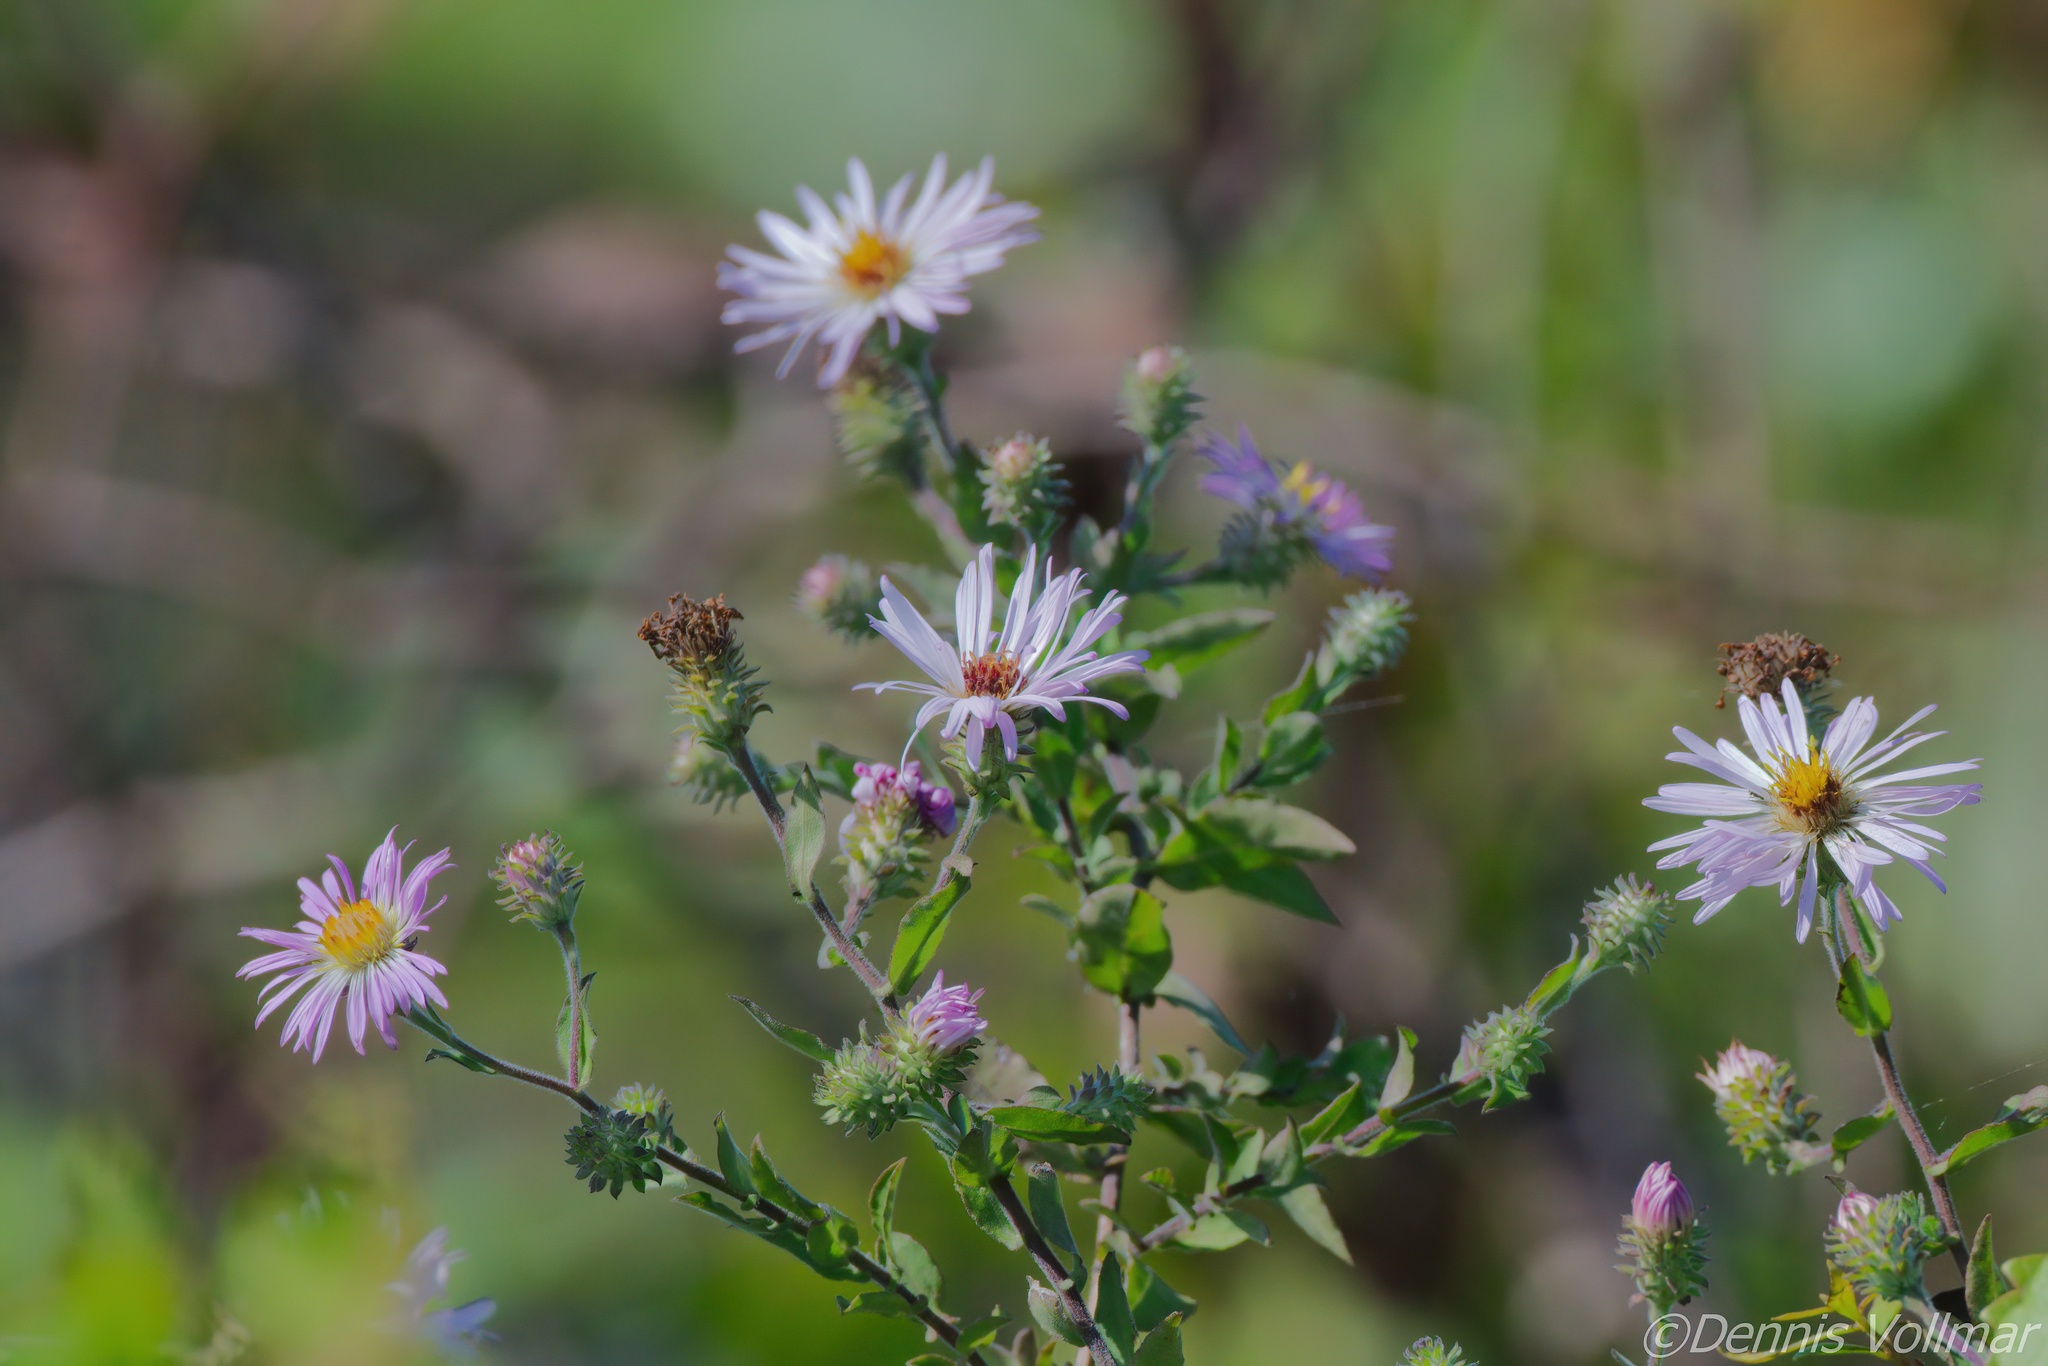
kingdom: Plantae
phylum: Tracheophyta
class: Magnoliopsida
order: Asterales
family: Asteraceae
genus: Ampelaster
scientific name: Ampelaster carolinianus
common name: Climbing aster
